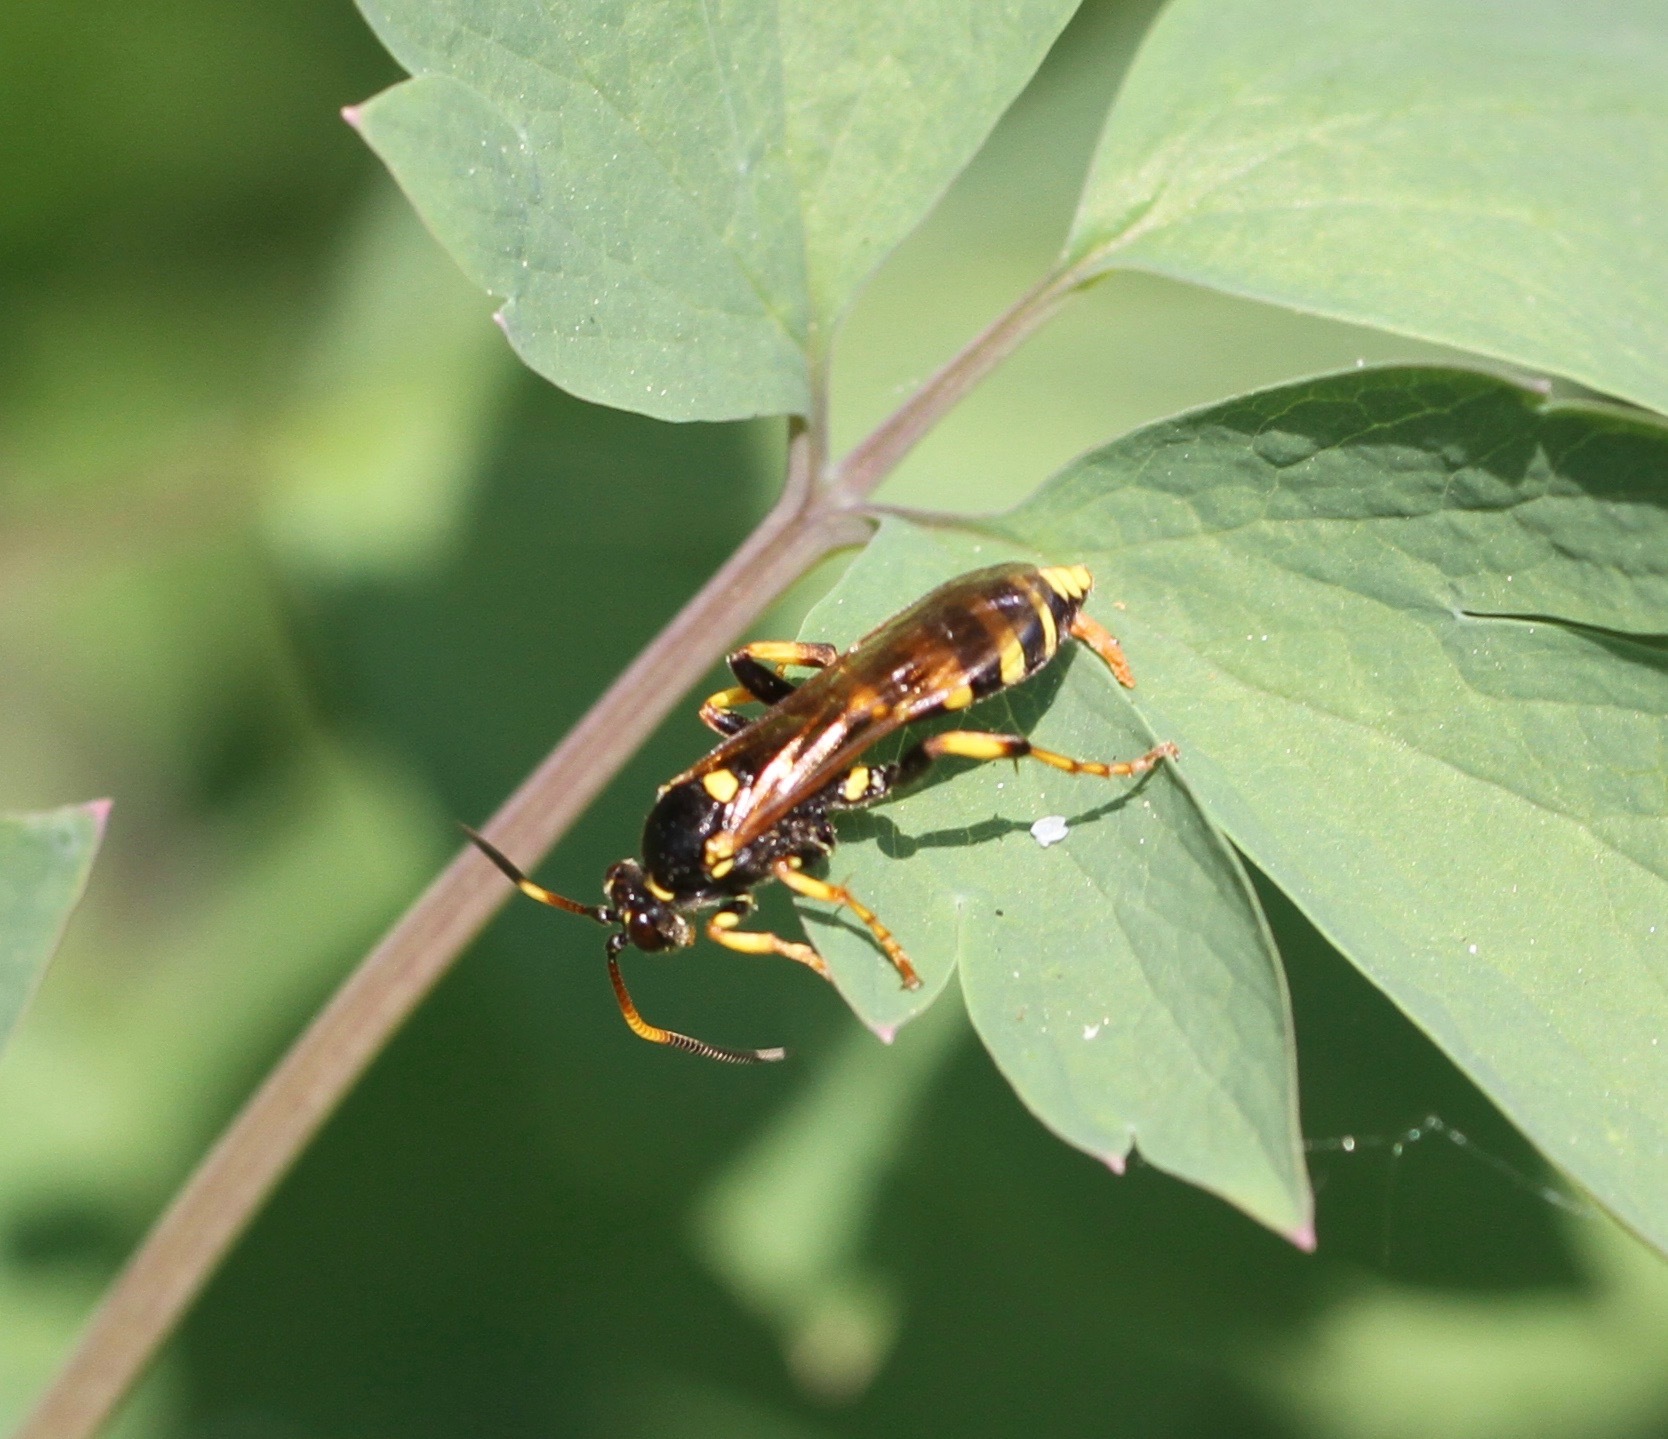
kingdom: Animalia
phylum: Arthropoda
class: Insecta
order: Hymenoptera
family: Ichneumonidae
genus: Ichneumon
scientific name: Ichneumon xanthorius
